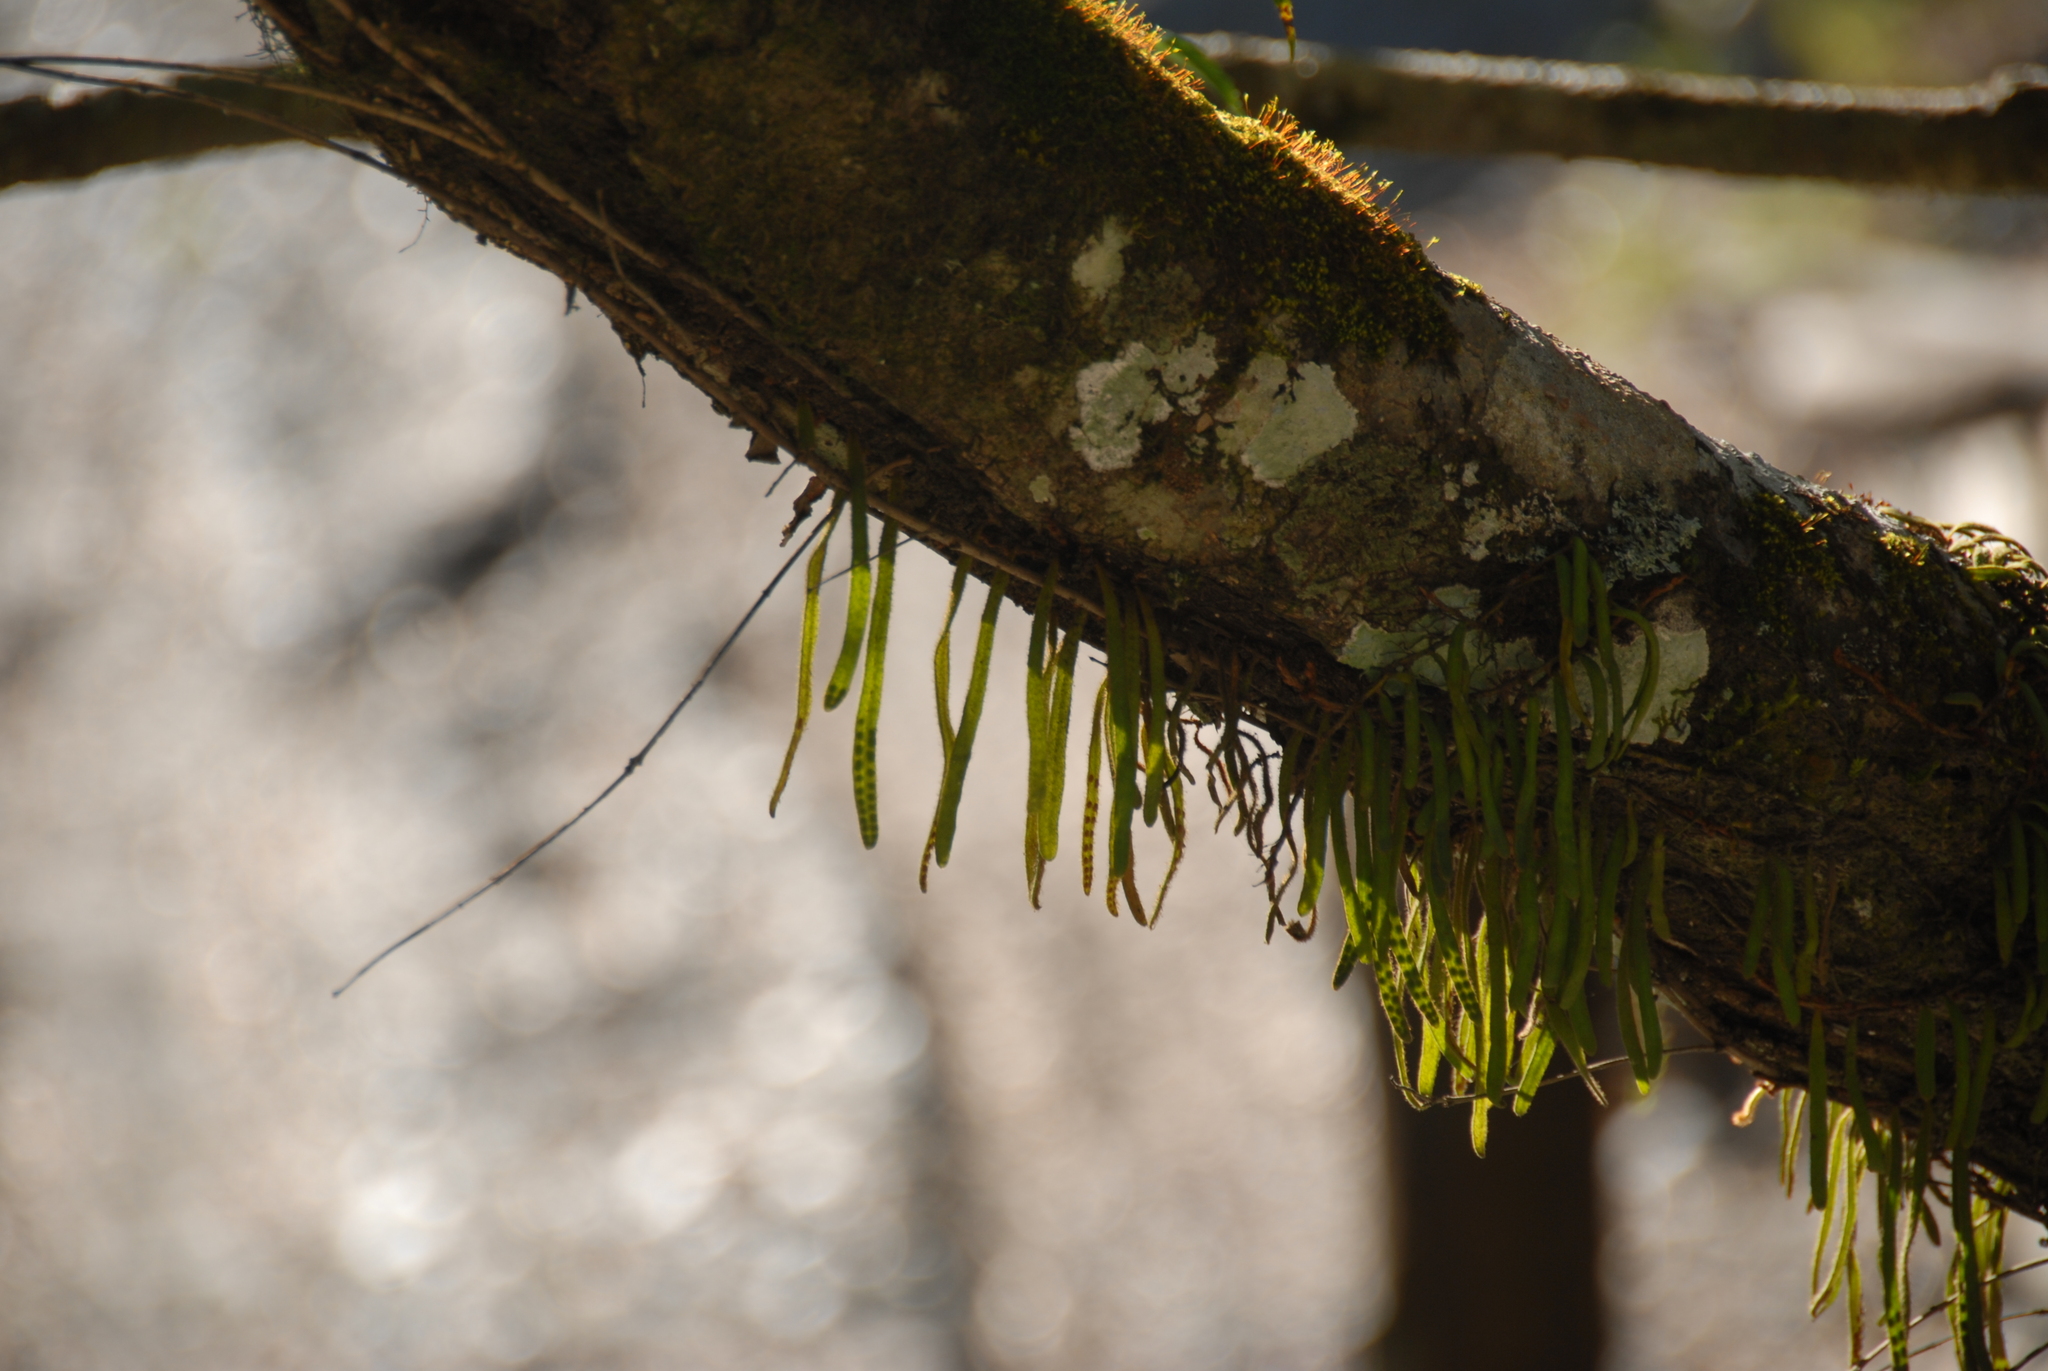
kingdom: Plantae
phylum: Tracheophyta
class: Polypodiopsida
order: Polypodiales
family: Polypodiaceae
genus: Pyrrosia
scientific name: Pyrrosia linearifolia
